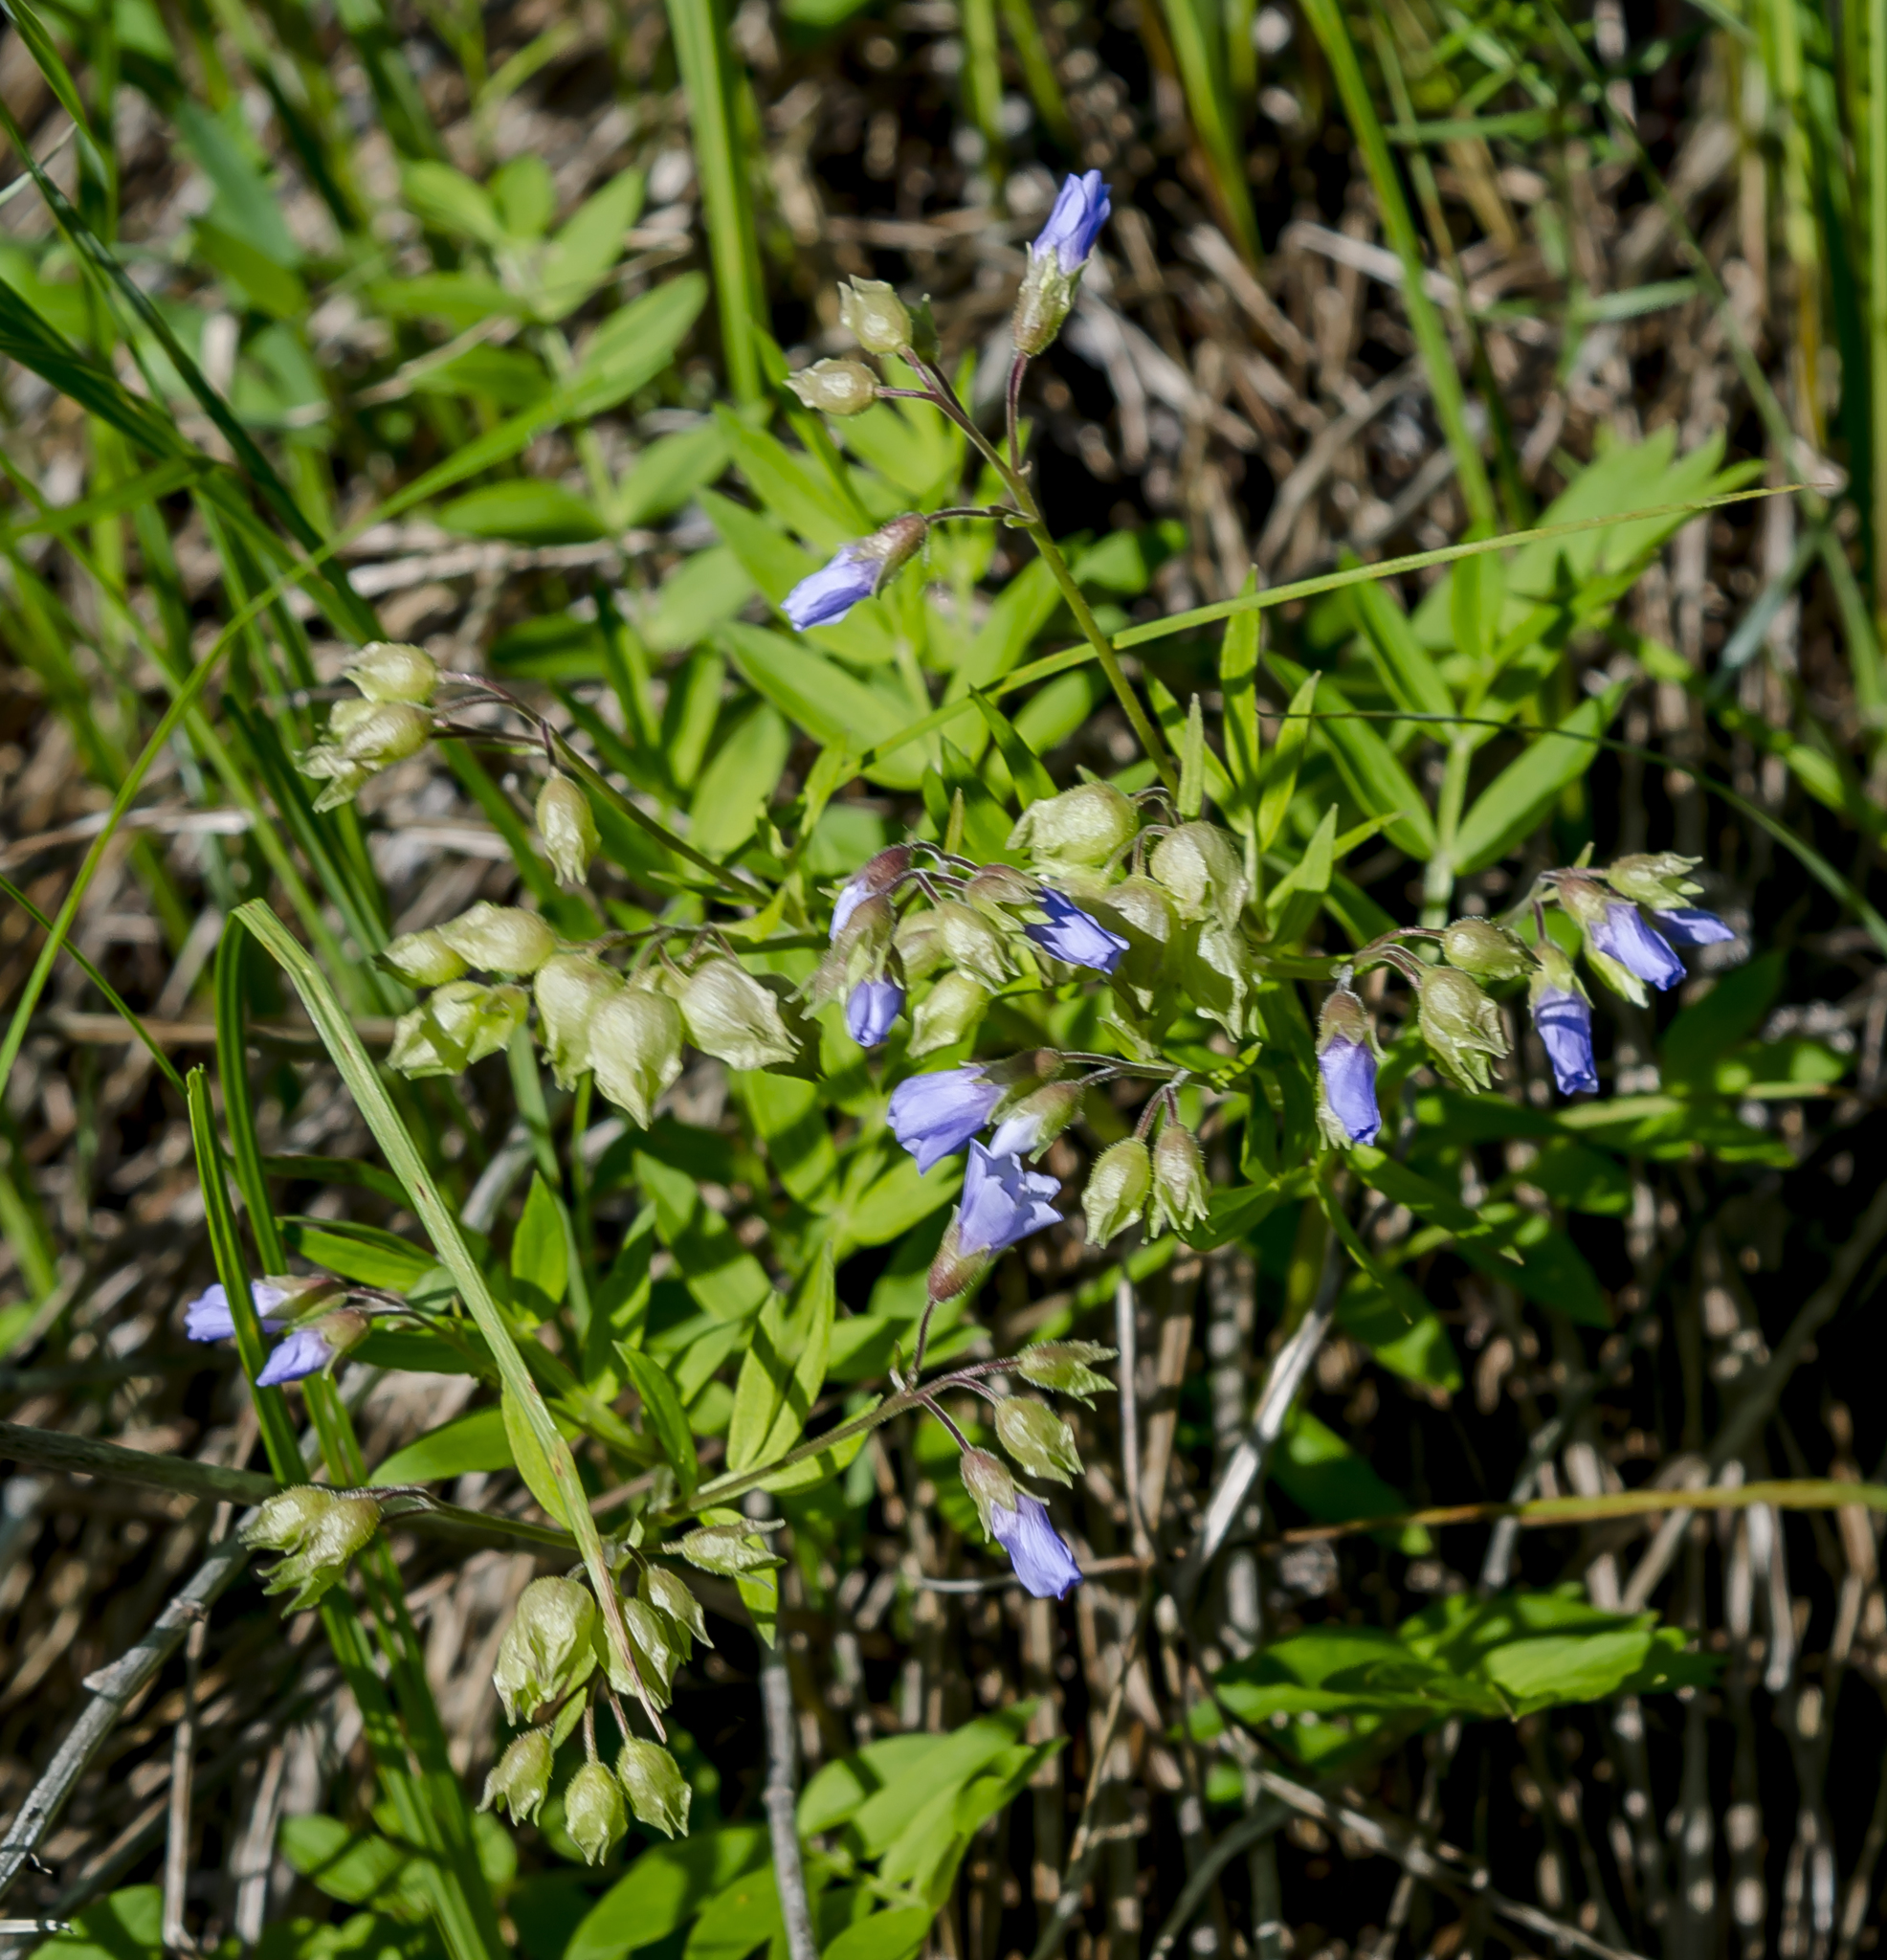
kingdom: Plantae
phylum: Tracheophyta
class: Magnoliopsida
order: Ericales
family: Polemoniaceae
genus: Polemonium
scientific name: Polemonium reptans
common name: Creeping jacob's-ladder
